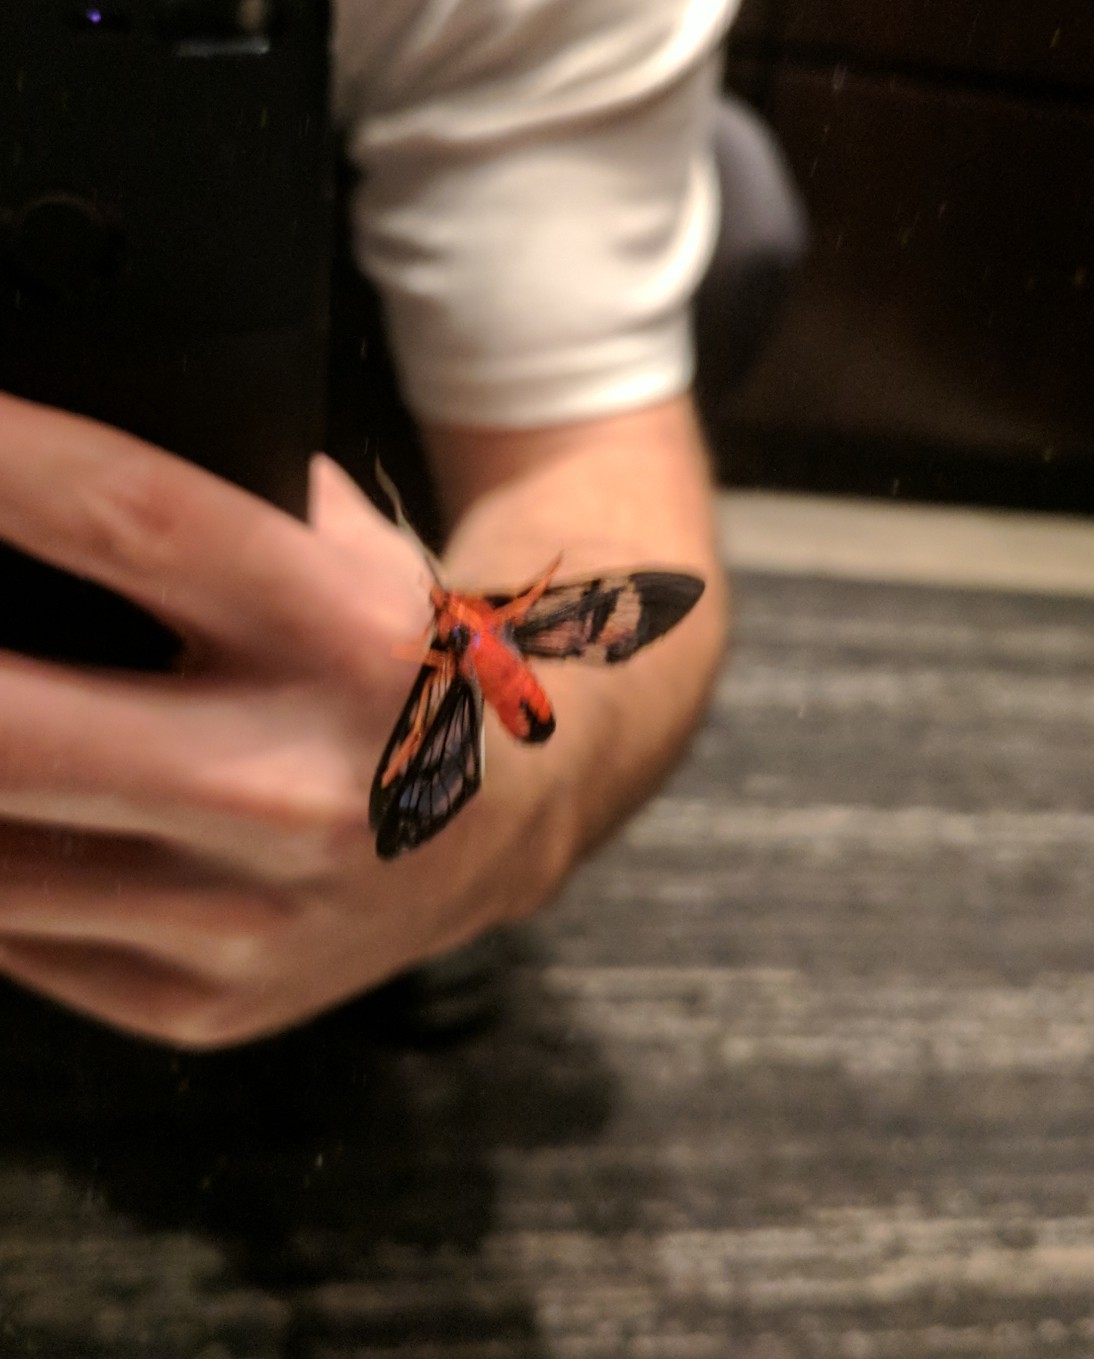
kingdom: Animalia
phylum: Arthropoda
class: Insecta
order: Lepidoptera
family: Erebidae
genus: Cosmosoma
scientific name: Cosmosoma myrodora
